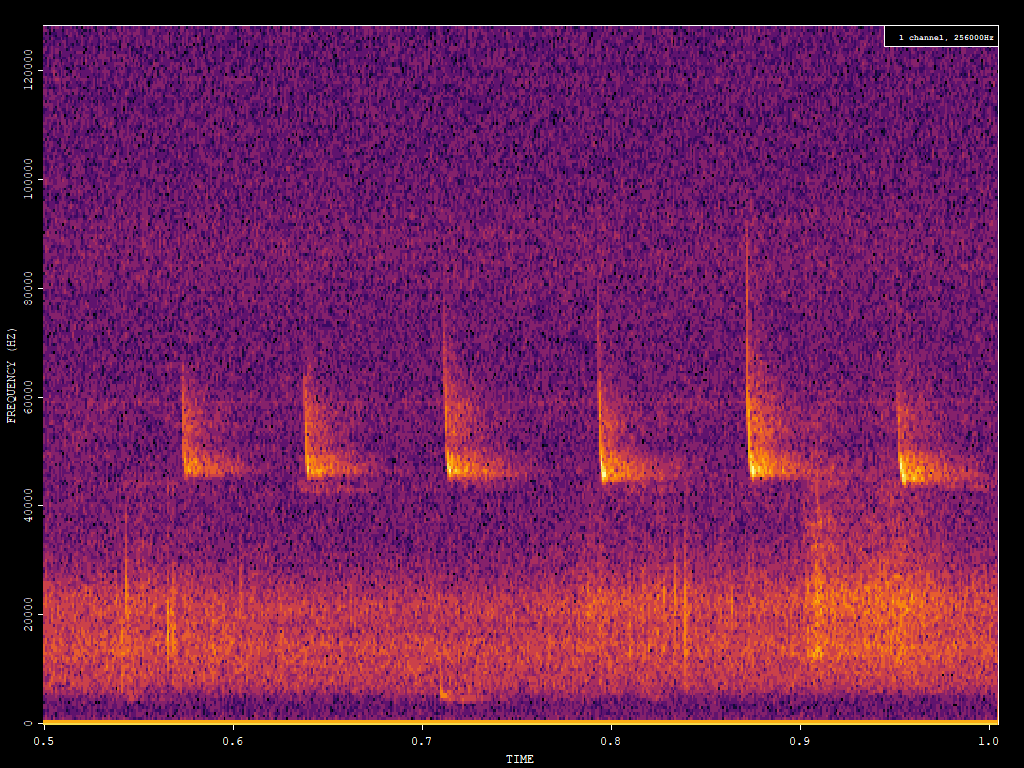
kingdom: Animalia
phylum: Chordata
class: Mammalia
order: Chiroptera
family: Vespertilionidae
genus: Pipistrellus
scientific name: Pipistrellus pipistrellus
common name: Common pipistrelle
